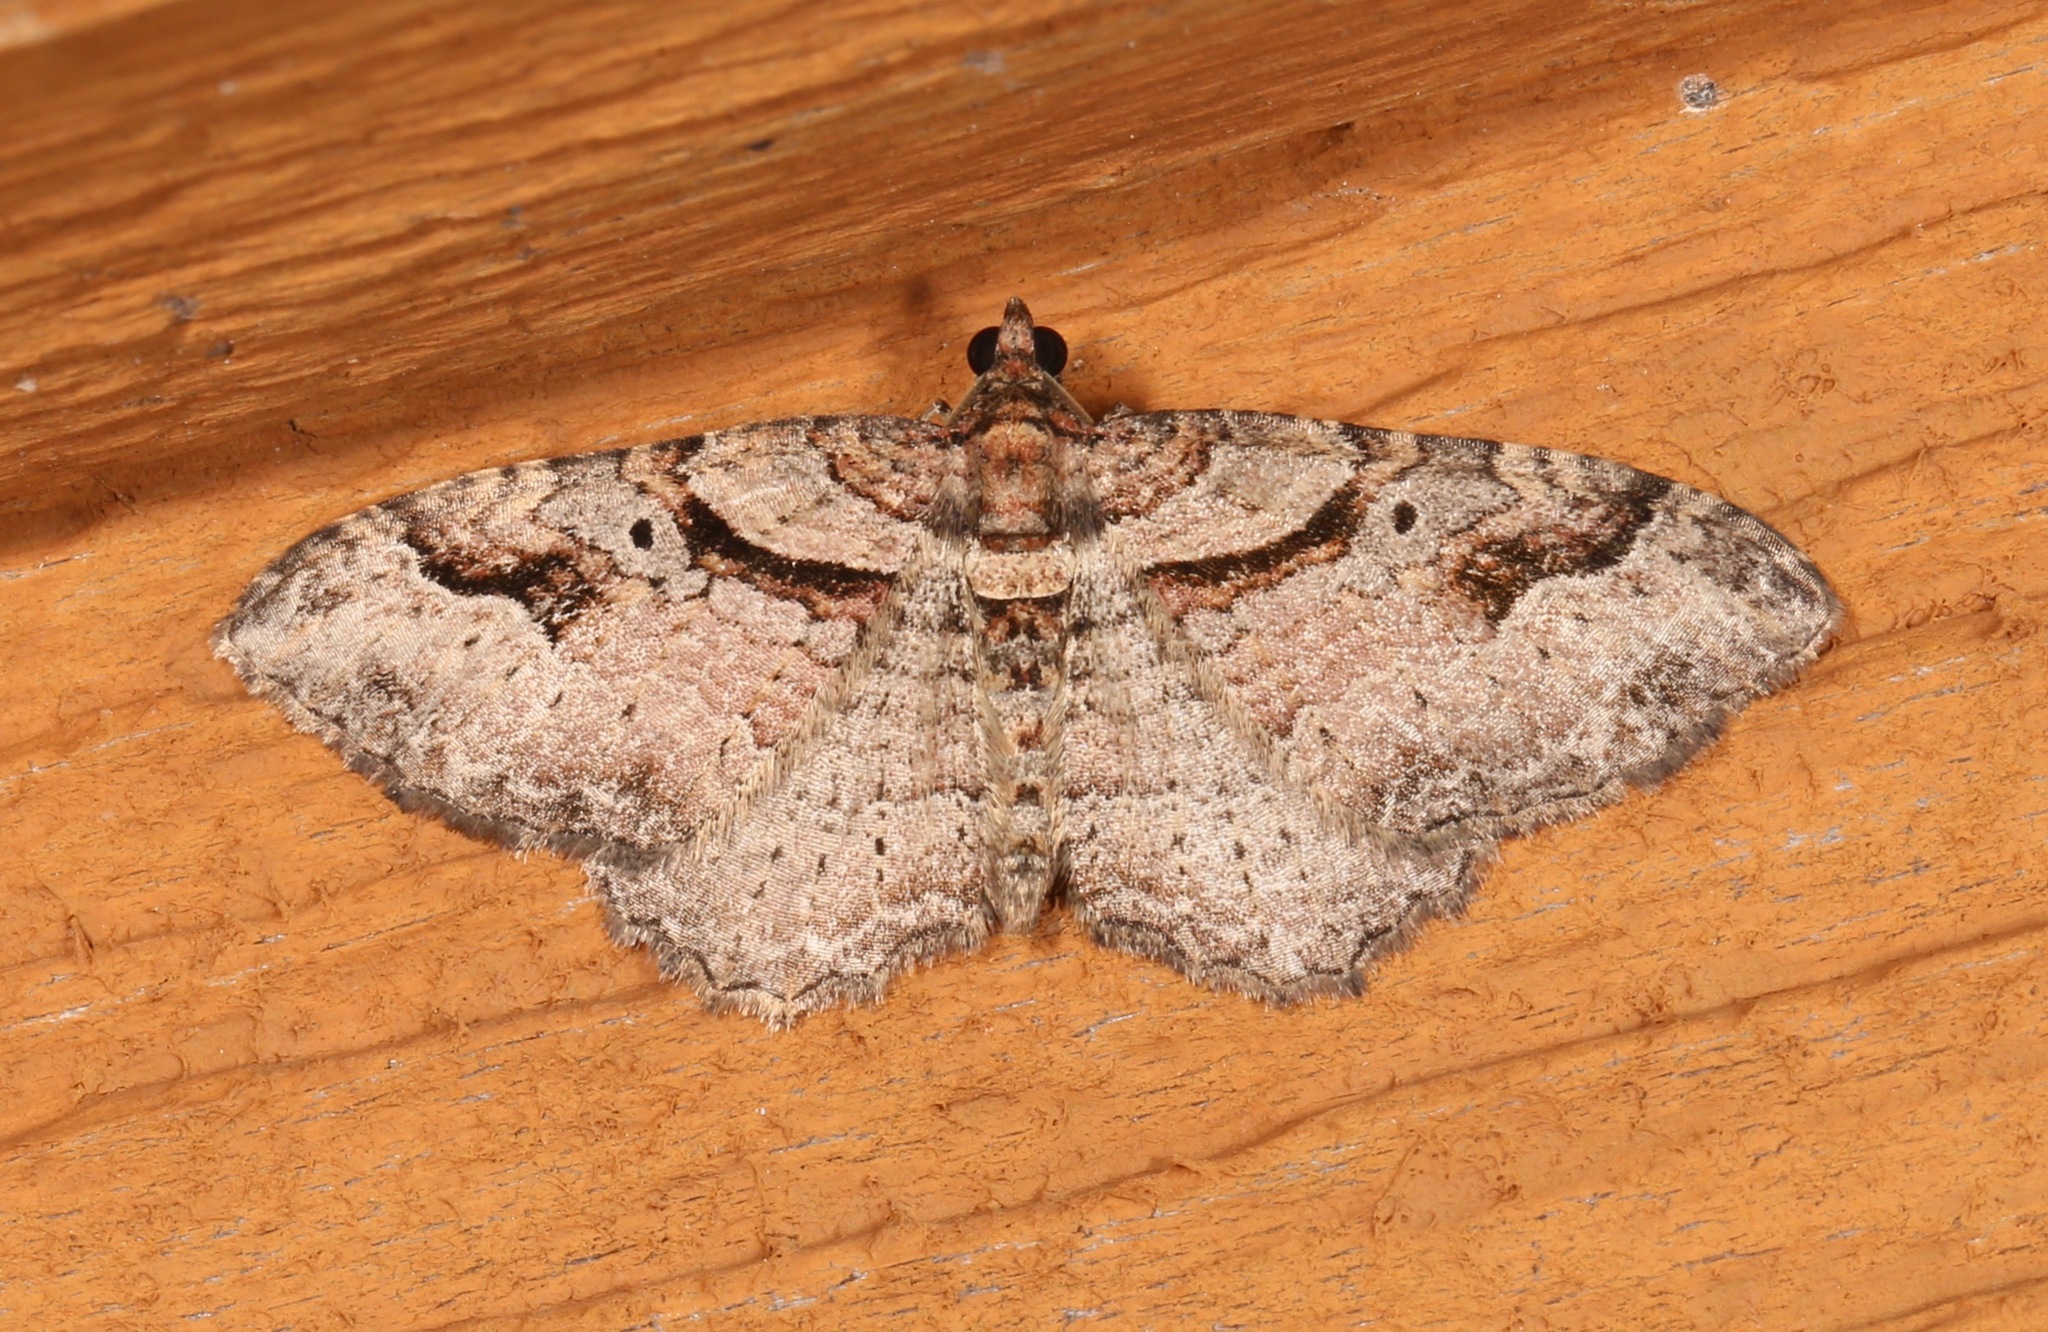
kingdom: Animalia
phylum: Arthropoda
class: Insecta
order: Lepidoptera
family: Geometridae
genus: Costaconvexa
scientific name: Costaconvexa centrostrigaria
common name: Bent-line carpet
